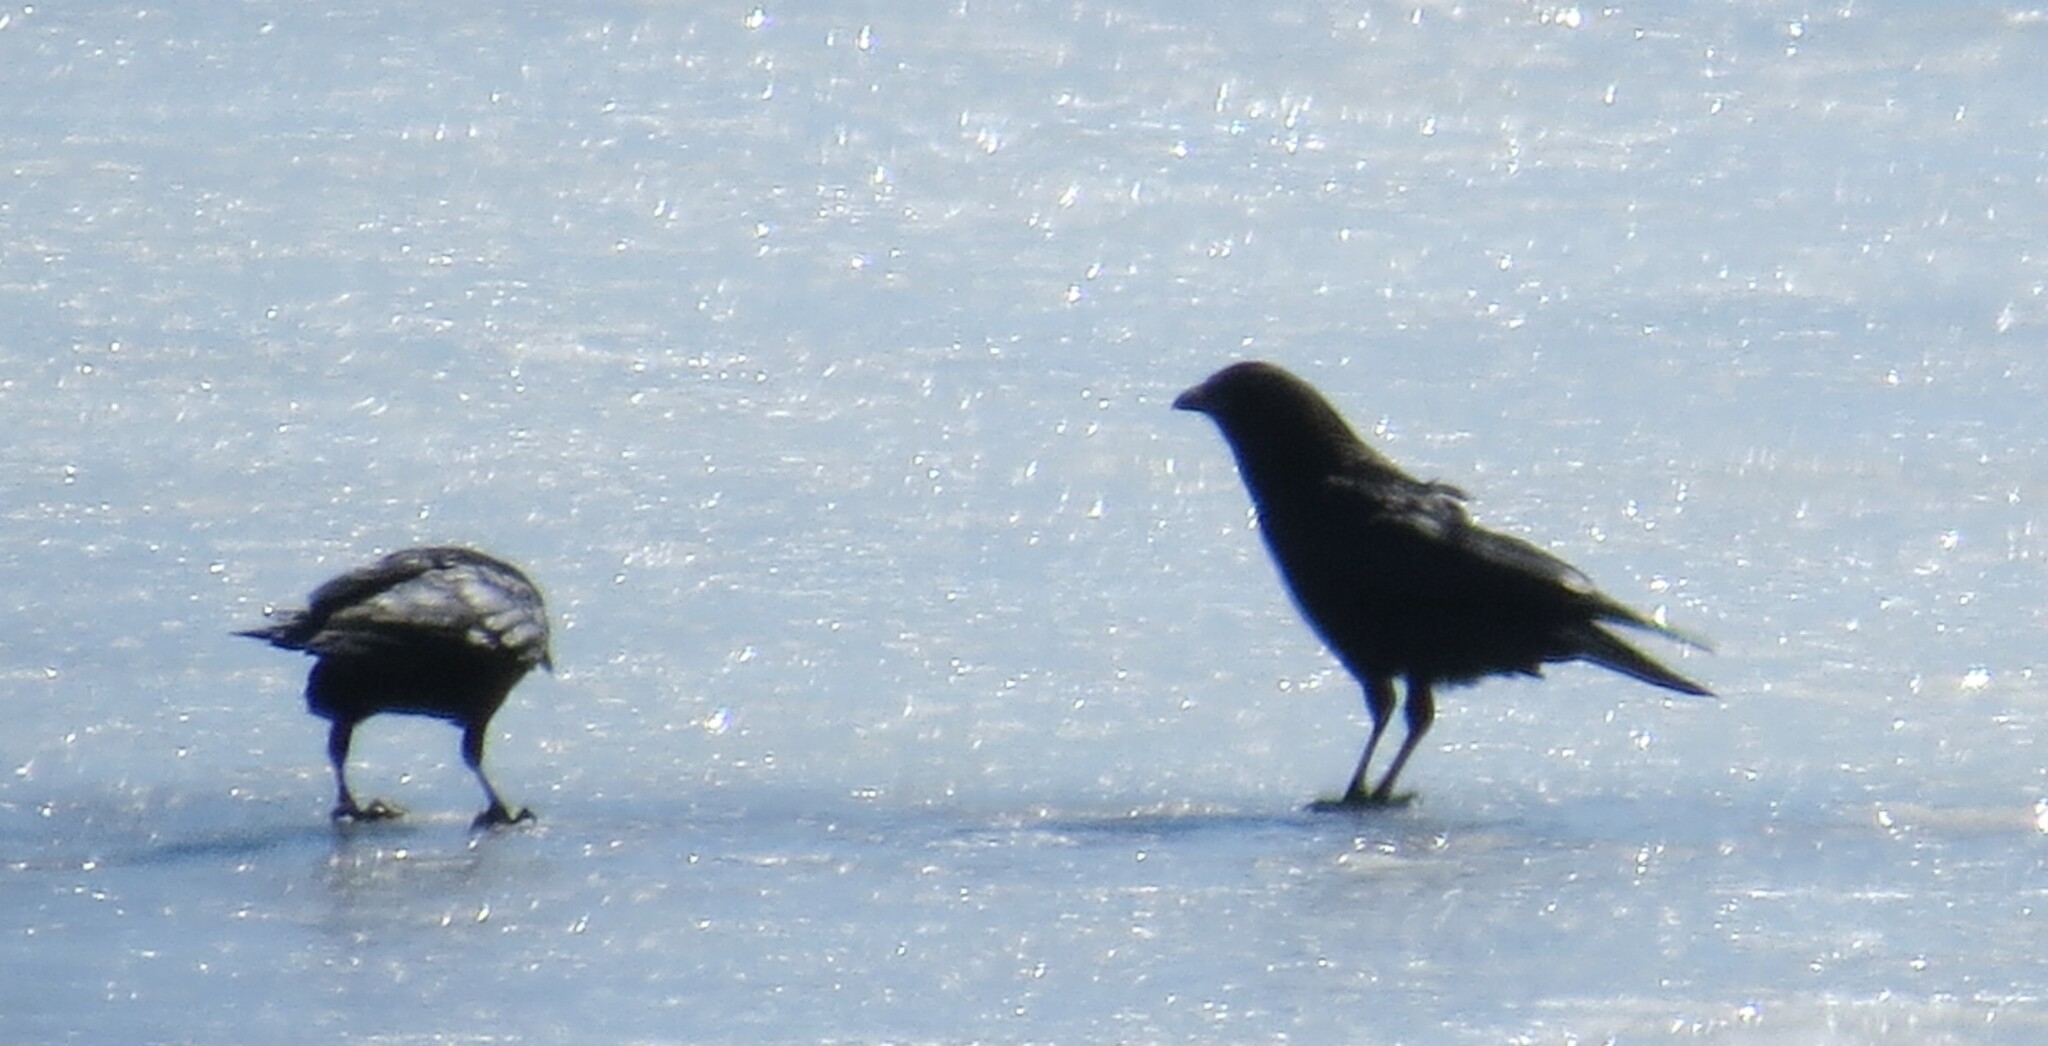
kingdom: Animalia
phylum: Chordata
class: Aves
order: Passeriformes
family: Corvidae
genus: Corvus
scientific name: Corvus brachyrhynchos
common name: American crow
